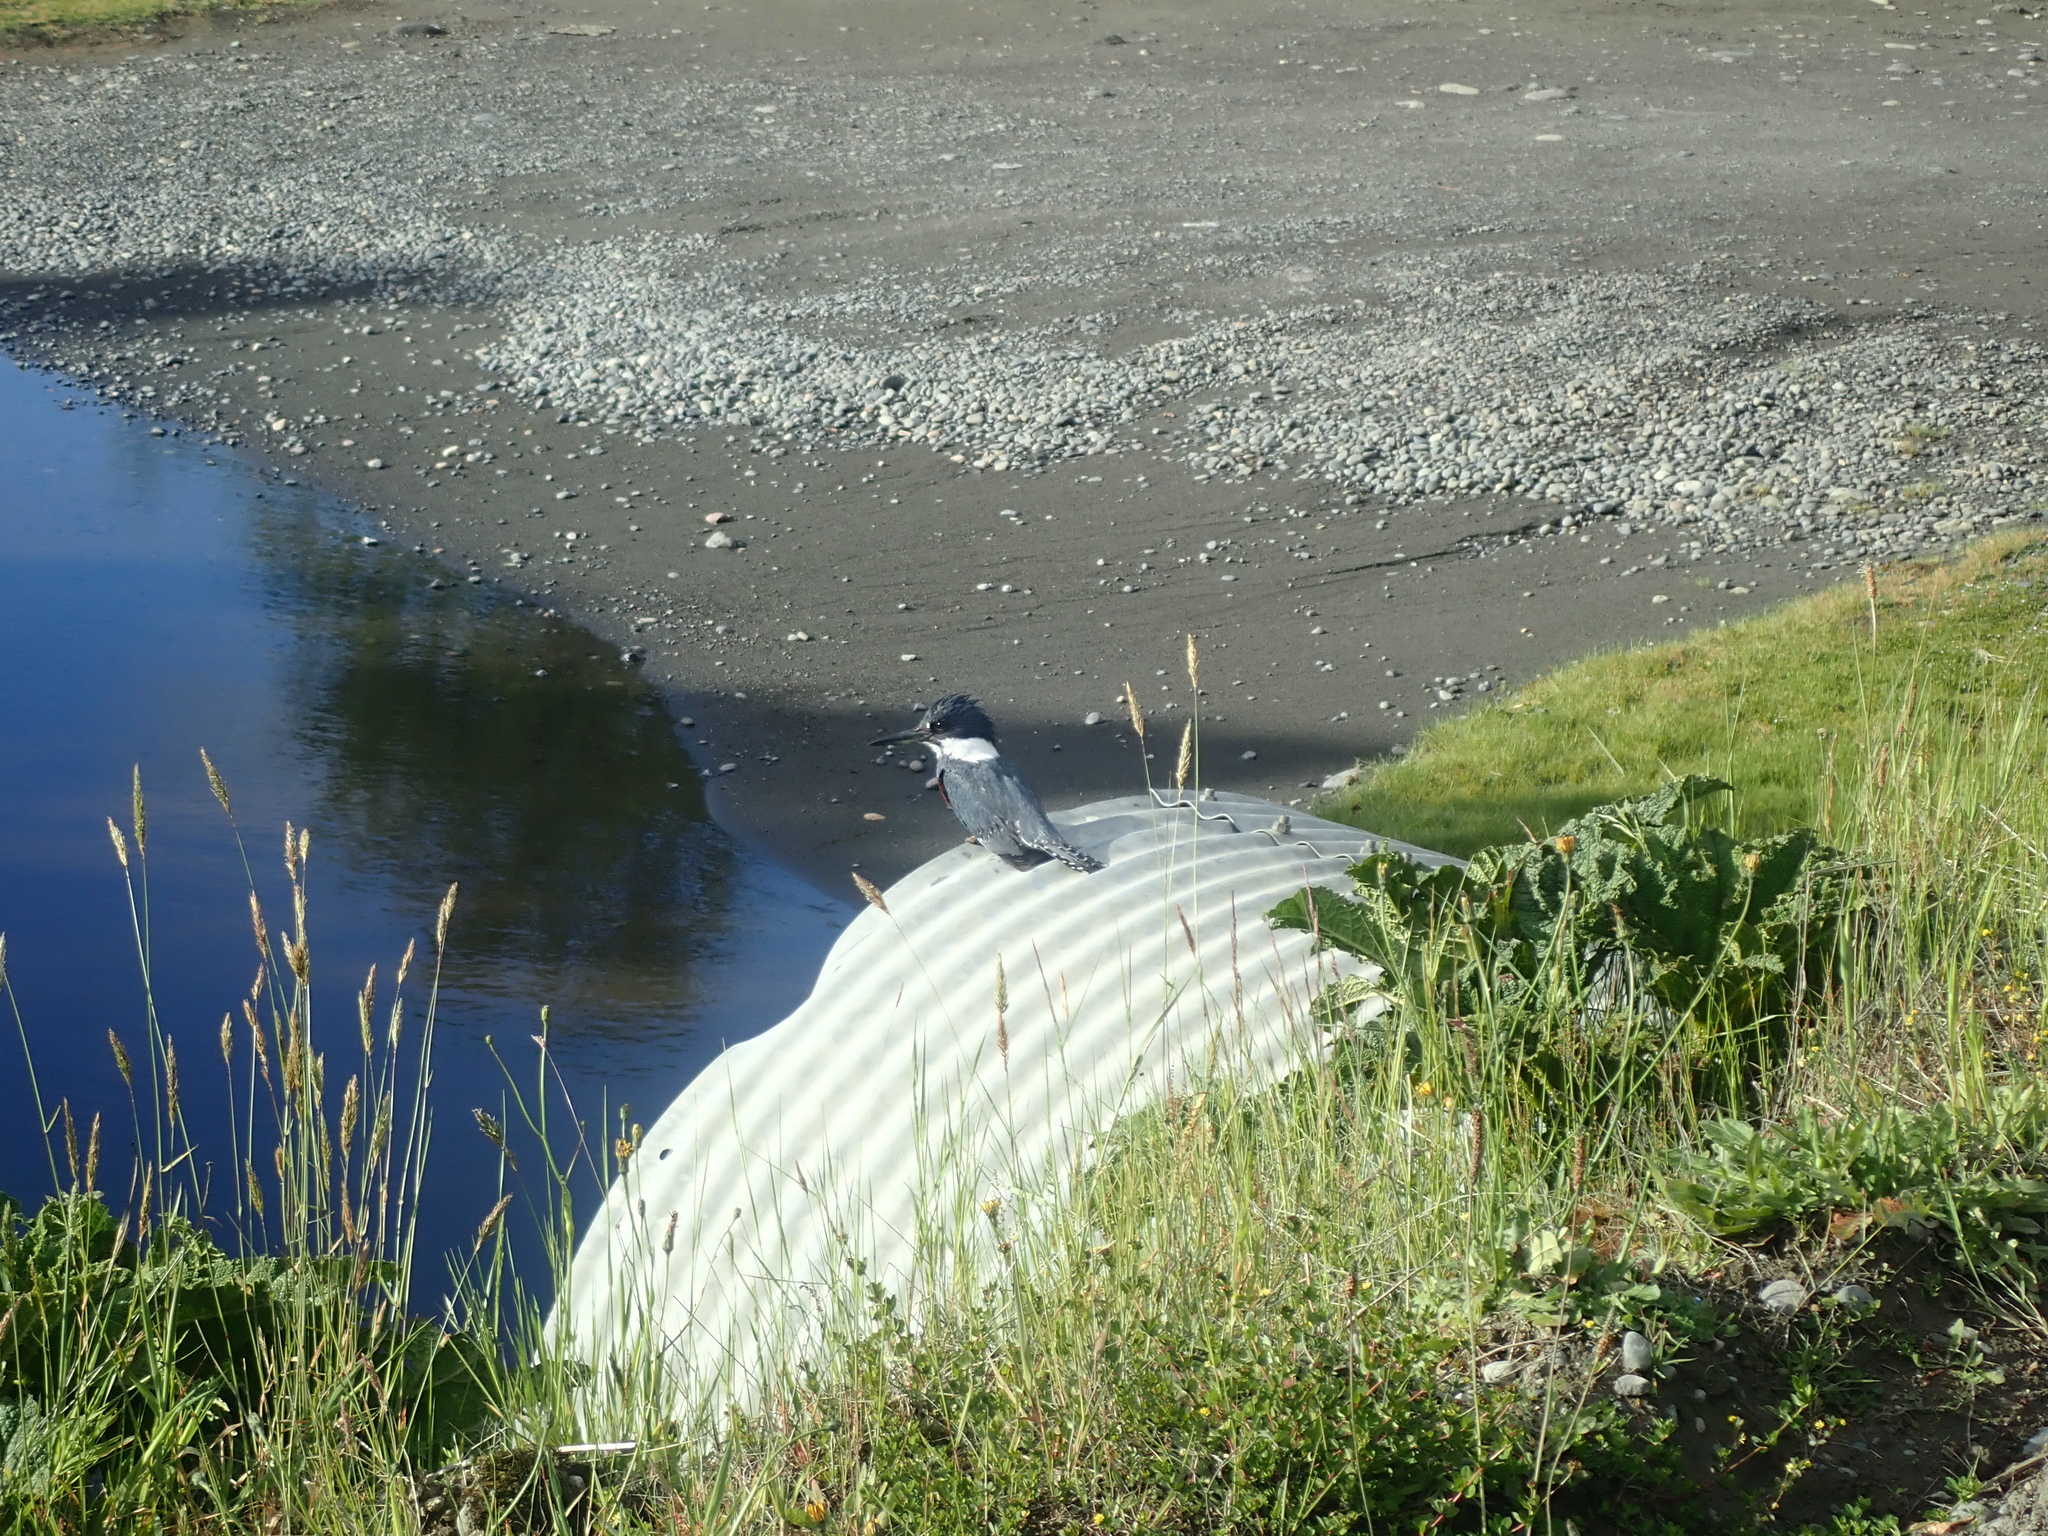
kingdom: Animalia
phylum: Chordata
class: Aves
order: Coraciiformes
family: Alcedinidae
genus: Megaceryle
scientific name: Megaceryle torquata
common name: Ringed kingfisher
